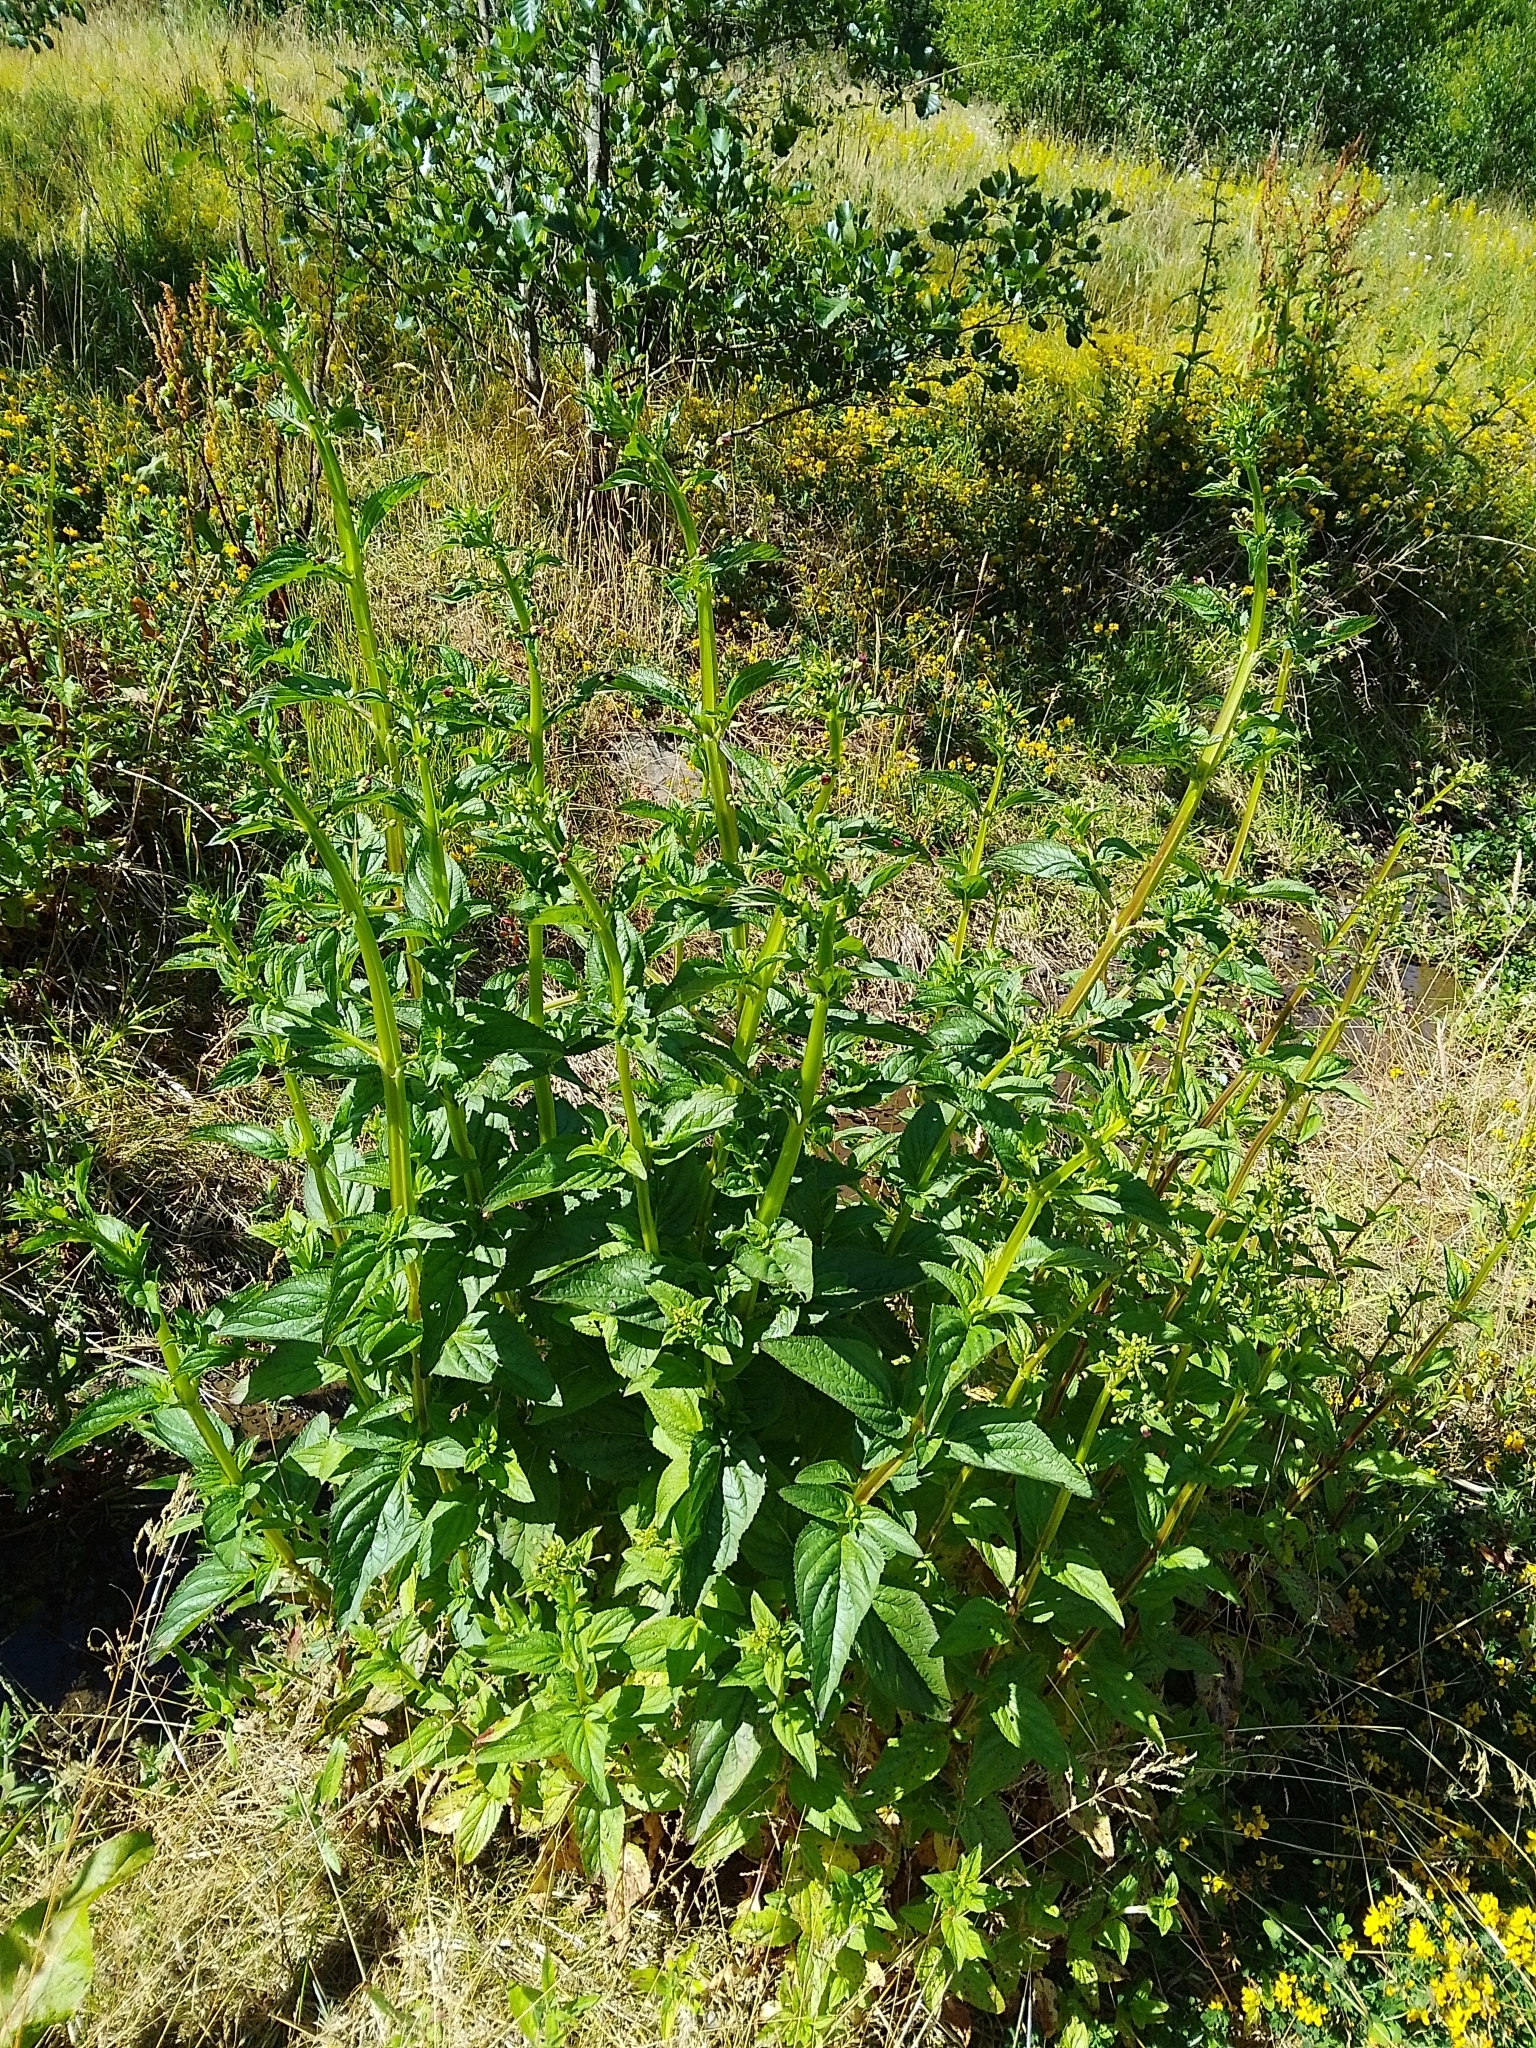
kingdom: Plantae
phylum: Tracheophyta
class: Magnoliopsida
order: Lamiales
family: Scrophulariaceae
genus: Scrophularia
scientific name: Scrophularia auriculata
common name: Water betony
